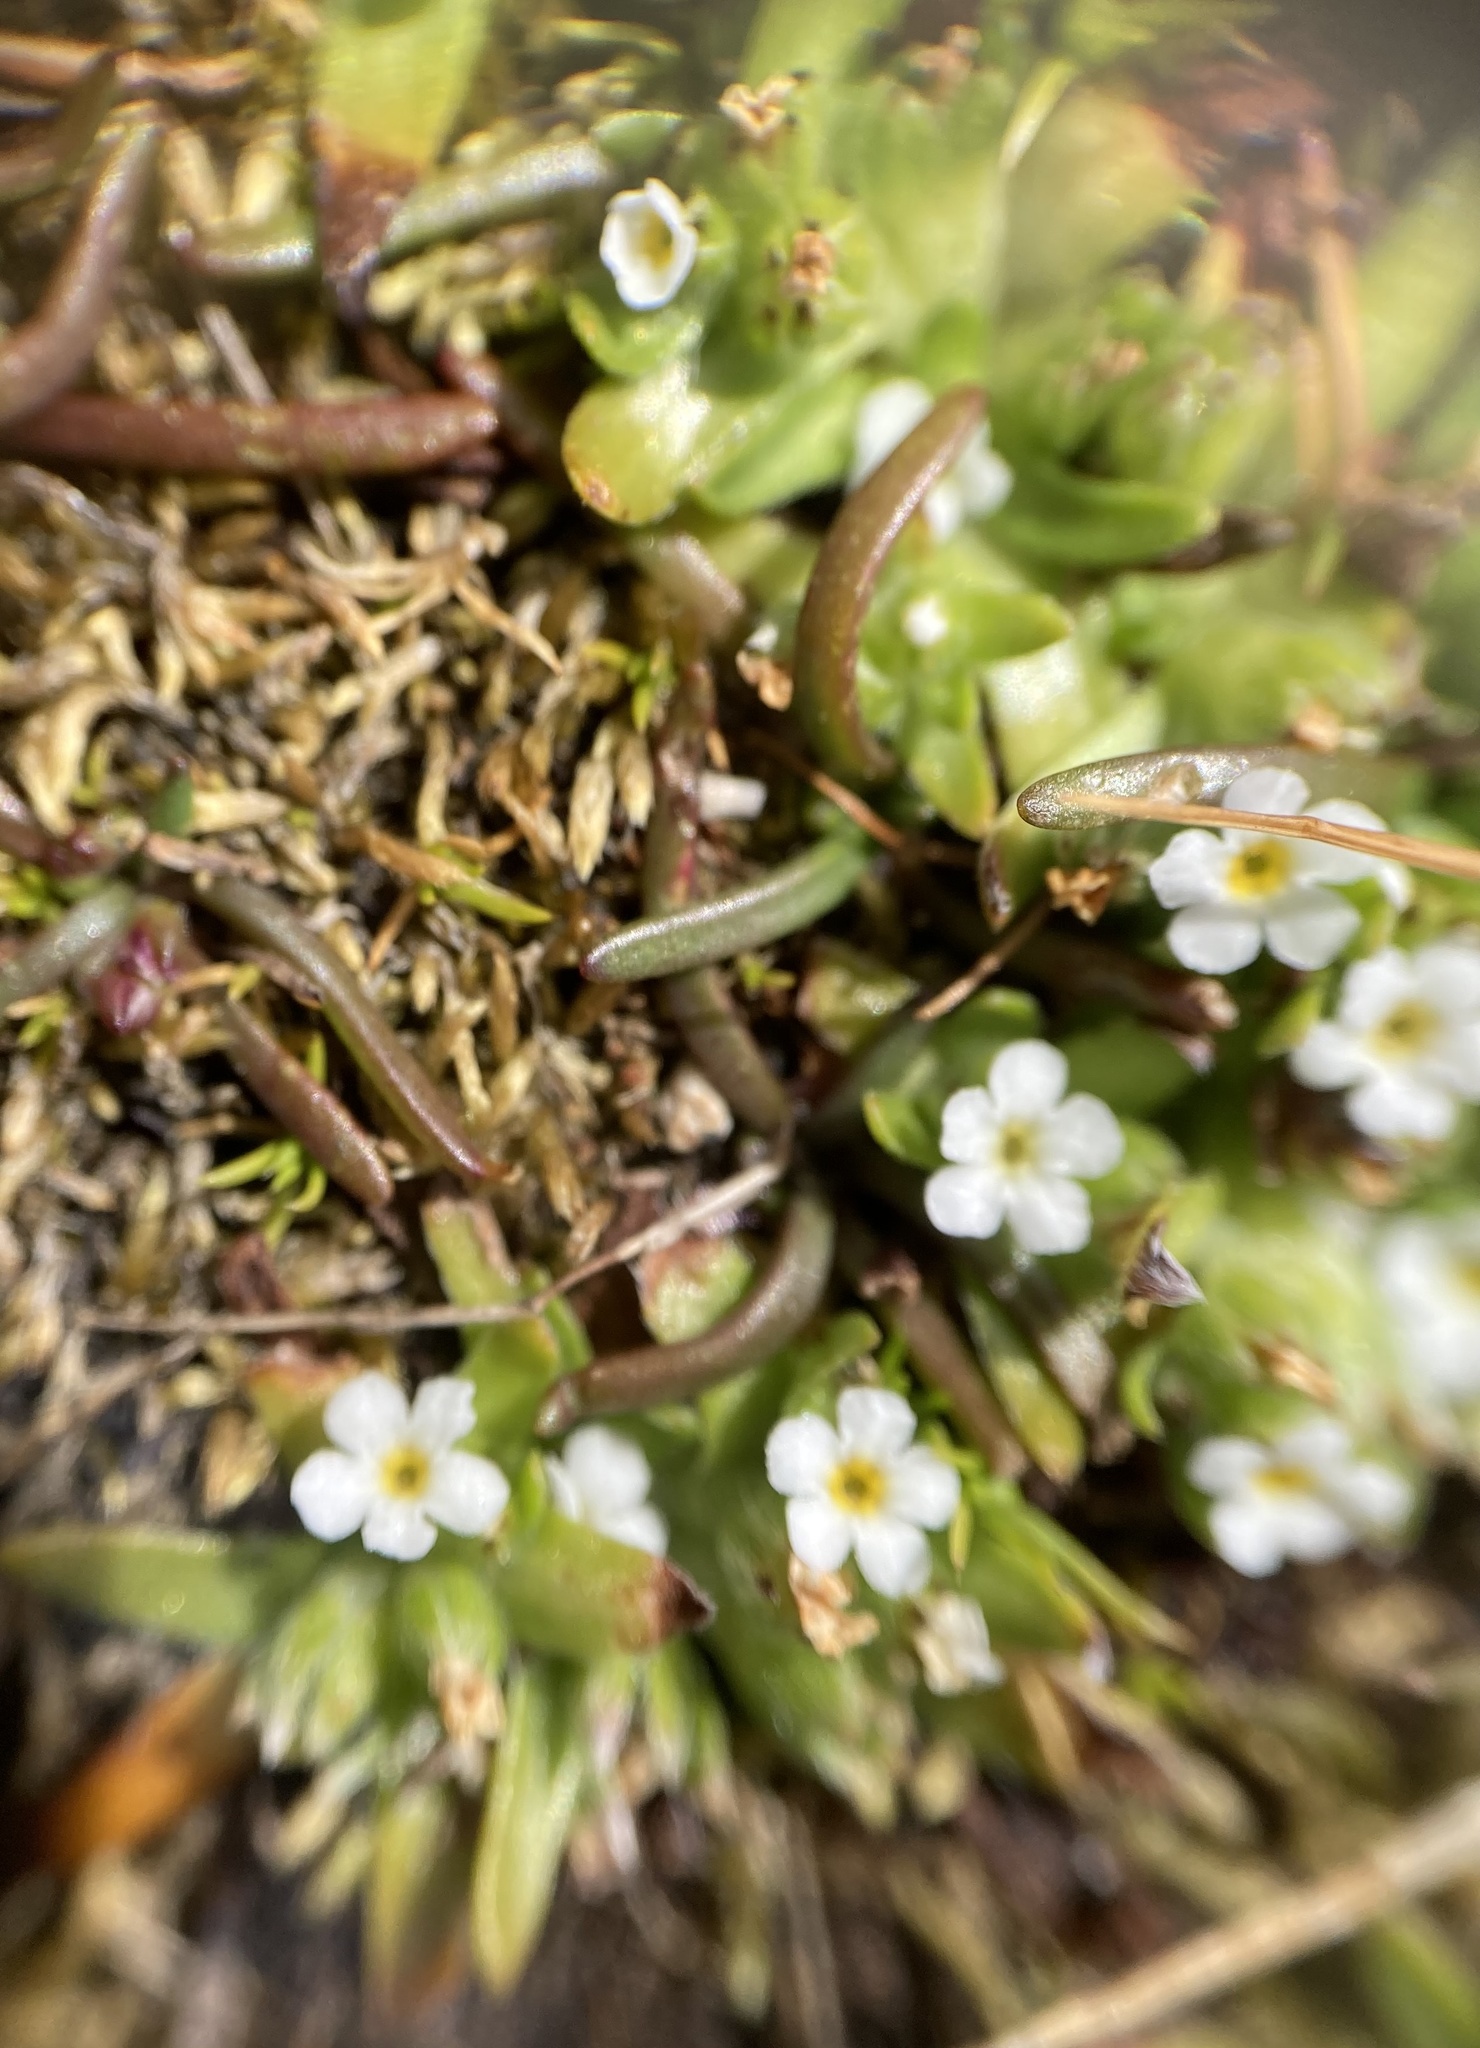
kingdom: Plantae
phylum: Tracheophyta
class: Magnoliopsida
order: Boraginales
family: Boraginaceae
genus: Plagiobothrys
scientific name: Plagiobothrys scouleri
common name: White forget-me-not
